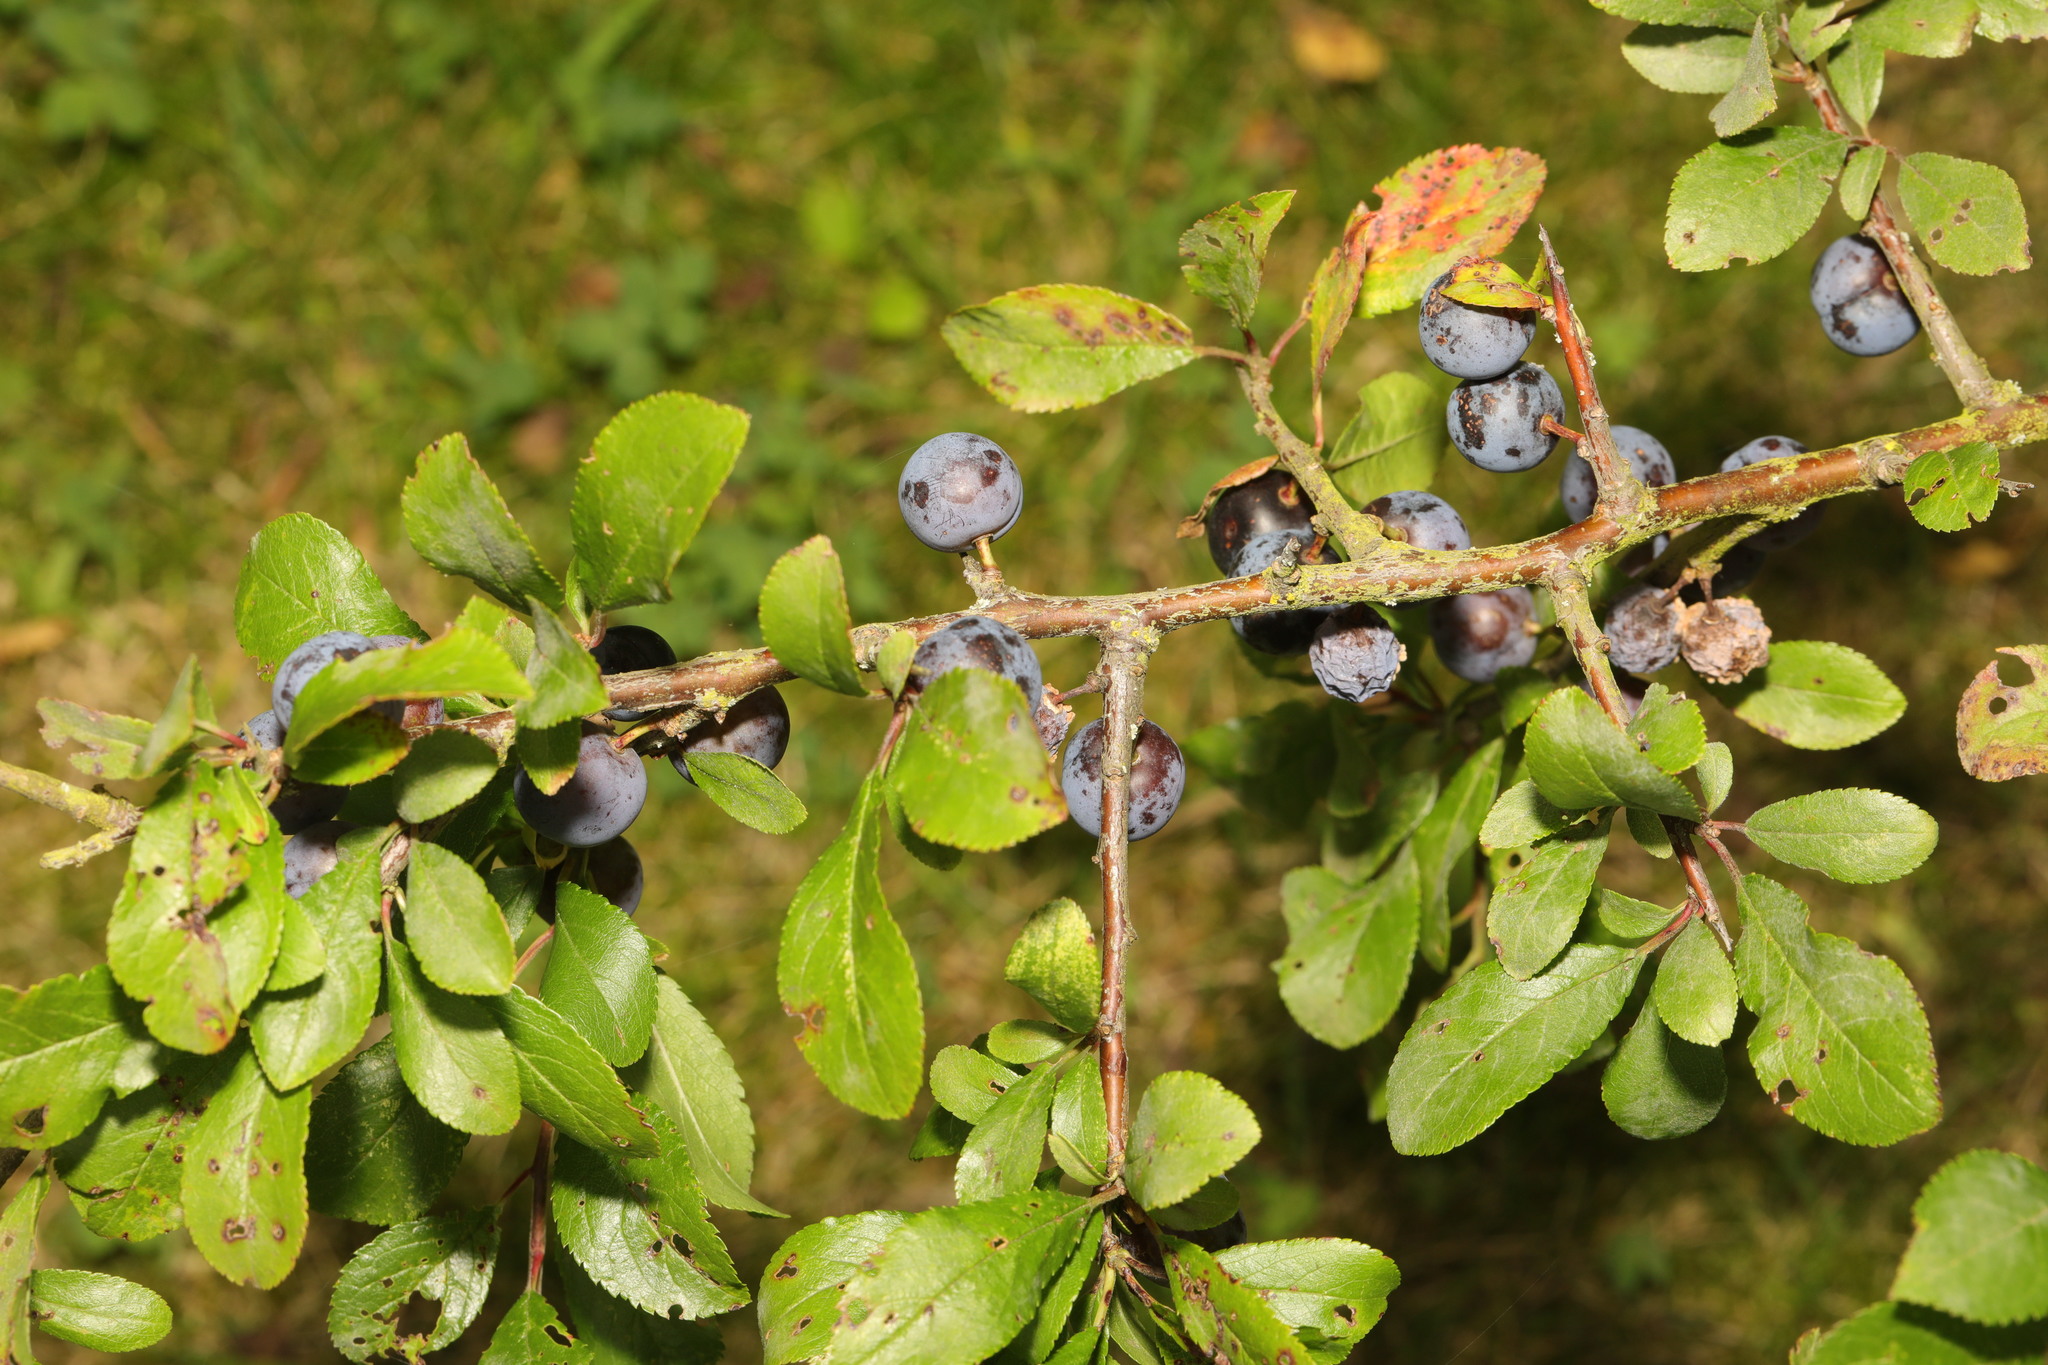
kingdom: Plantae
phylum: Tracheophyta
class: Magnoliopsida
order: Rosales
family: Rosaceae
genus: Prunus
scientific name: Prunus spinosa
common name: Blackthorn
